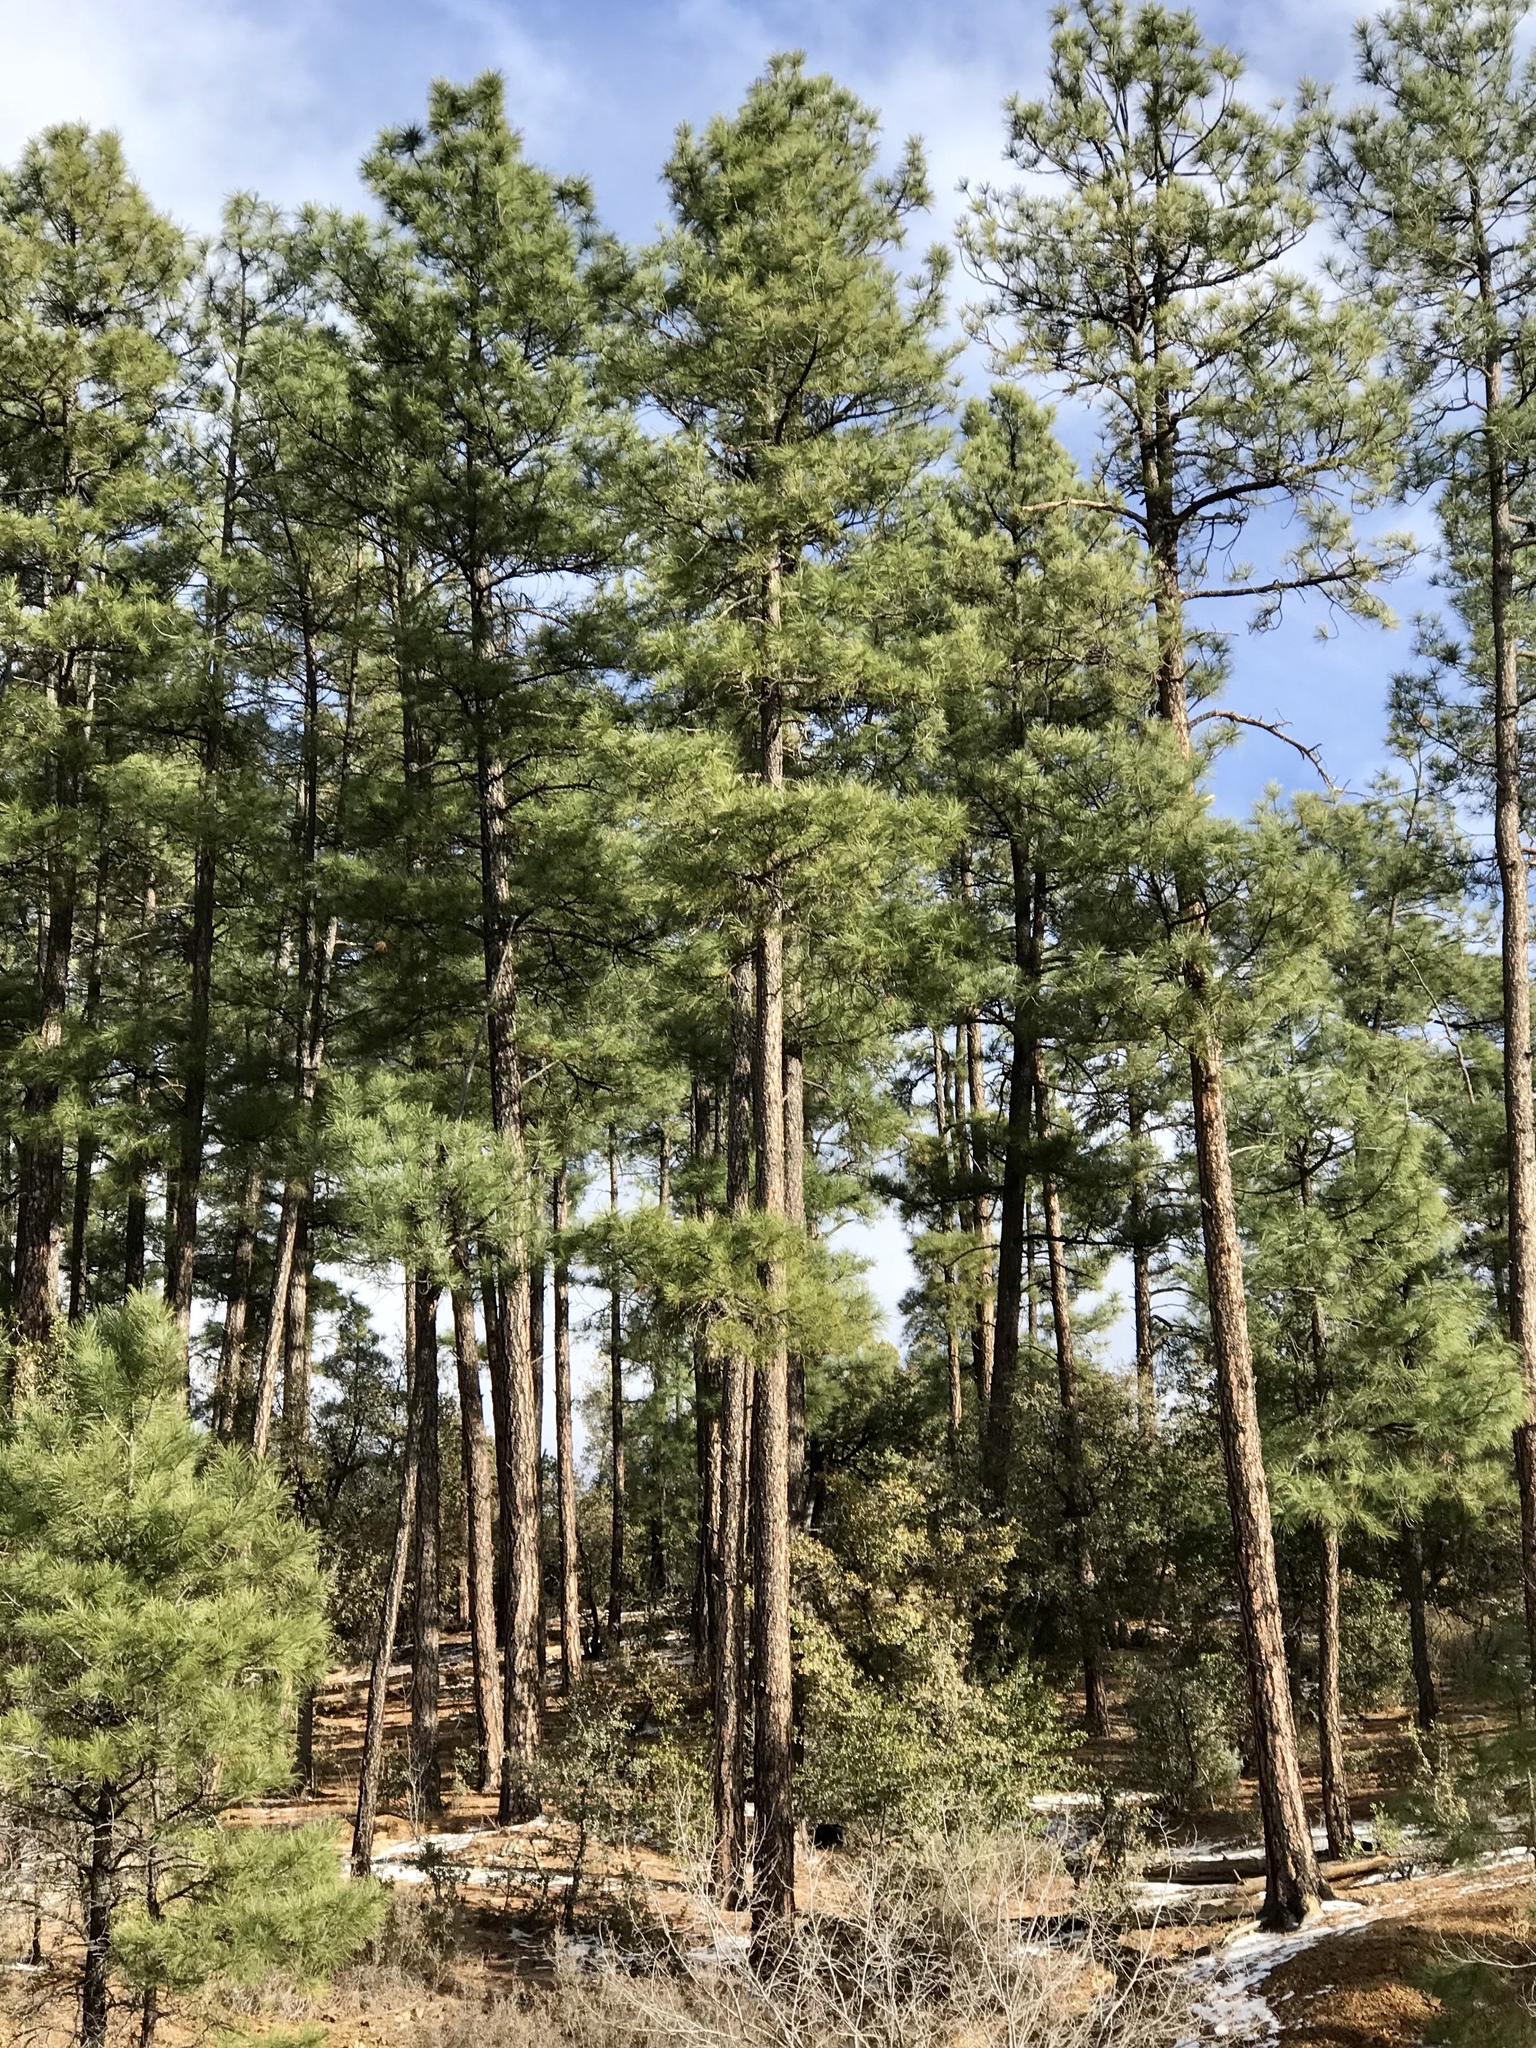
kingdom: Plantae
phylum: Tracheophyta
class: Pinopsida
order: Pinales
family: Pinaceae
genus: Pinus
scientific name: Pinus ponderosa
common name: Western yellow-pine
